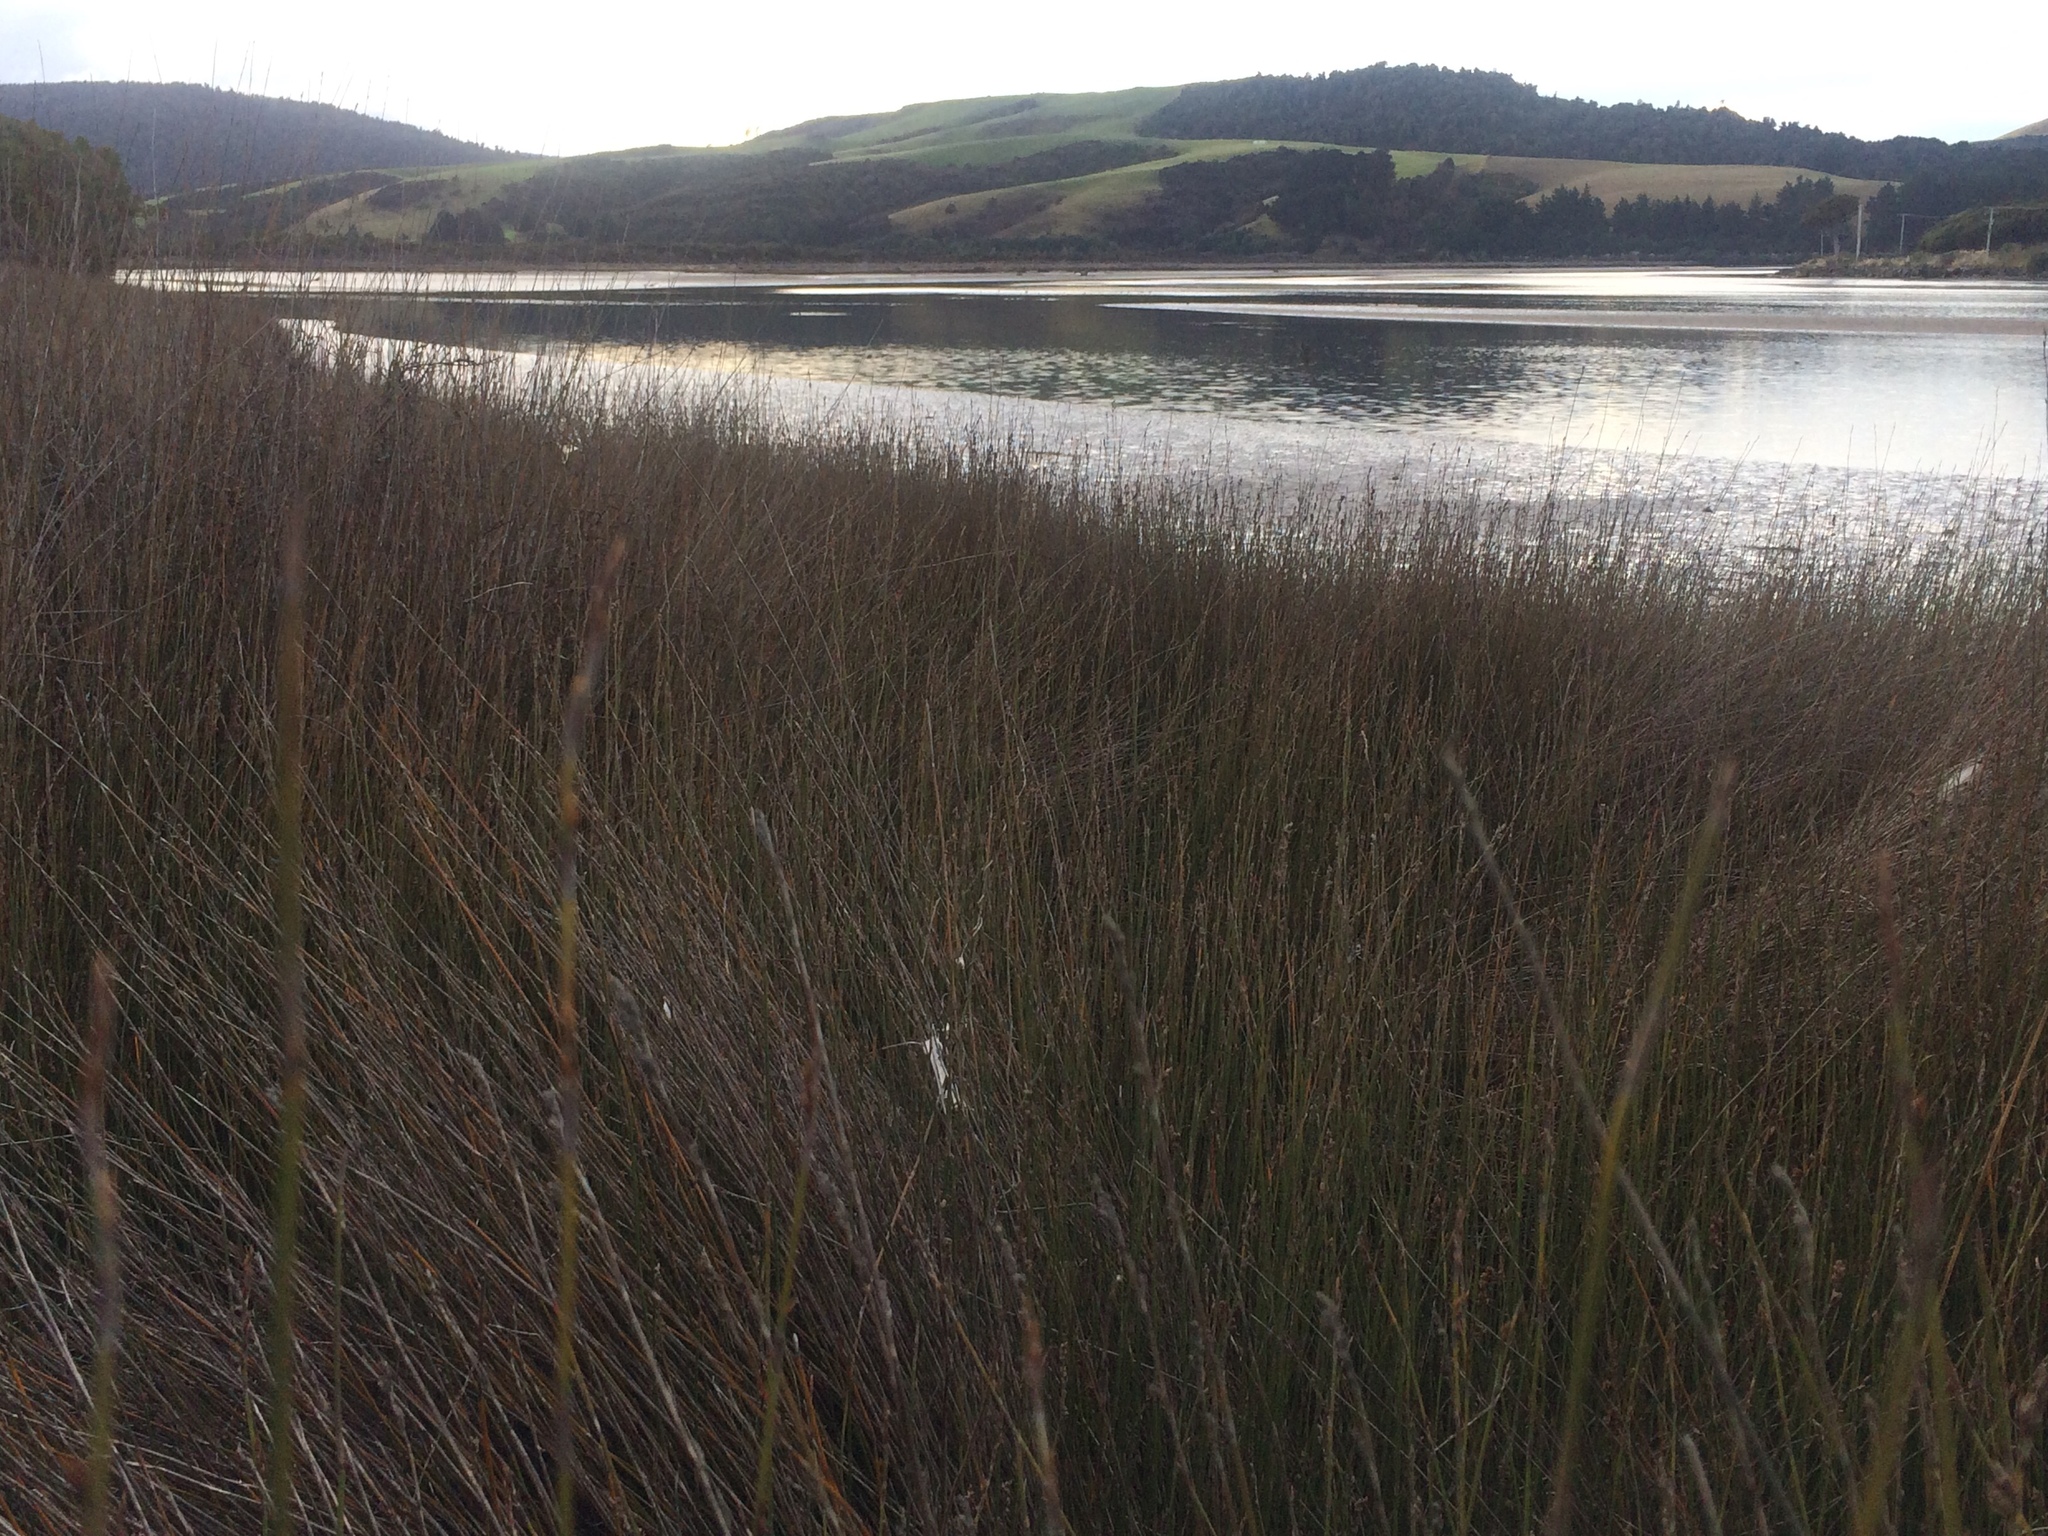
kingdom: Plantae
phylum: Tracheophyta
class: Liliopsida
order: Poales
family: Restionaceae
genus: Apodasmia
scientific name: Apodasmia similis
